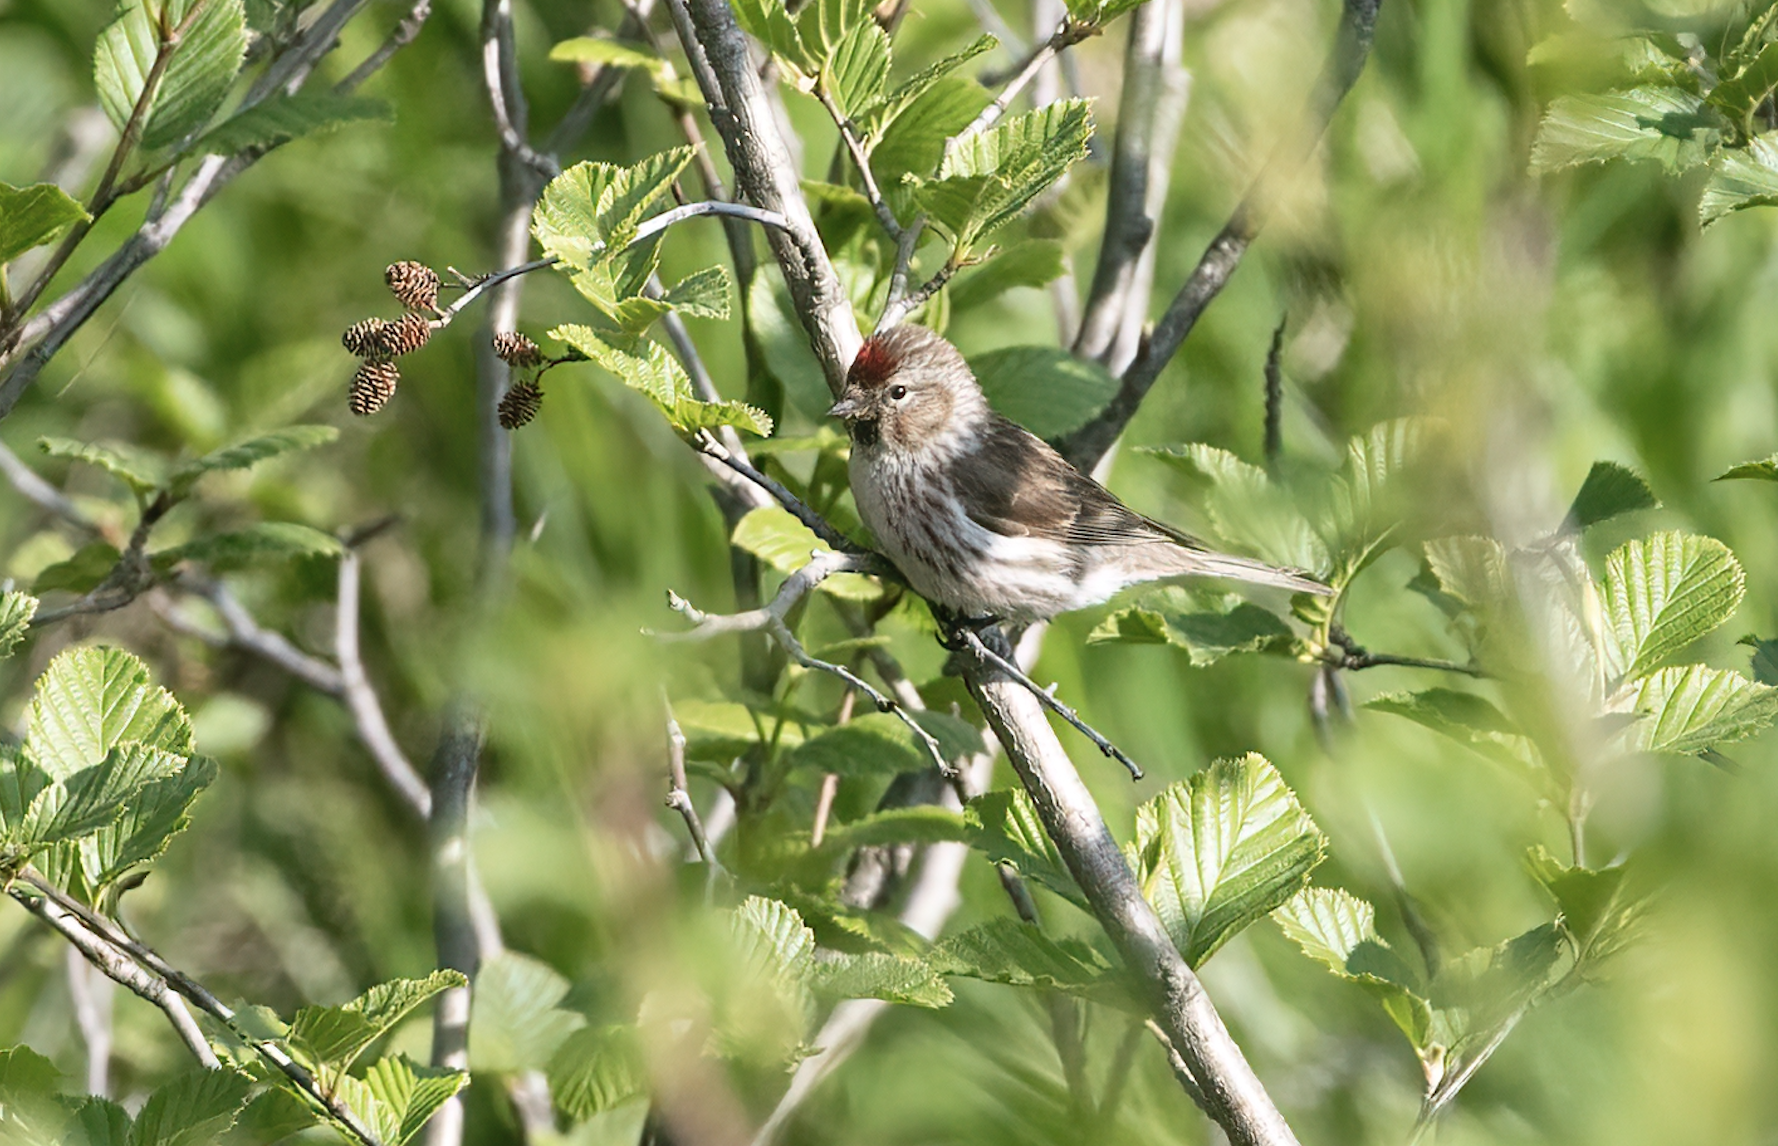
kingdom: Animalia
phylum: Chordata
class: Aves
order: Passeriformes
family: Fringillidae
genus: Acanthis
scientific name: Acanthis flammea
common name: Common redpoll
